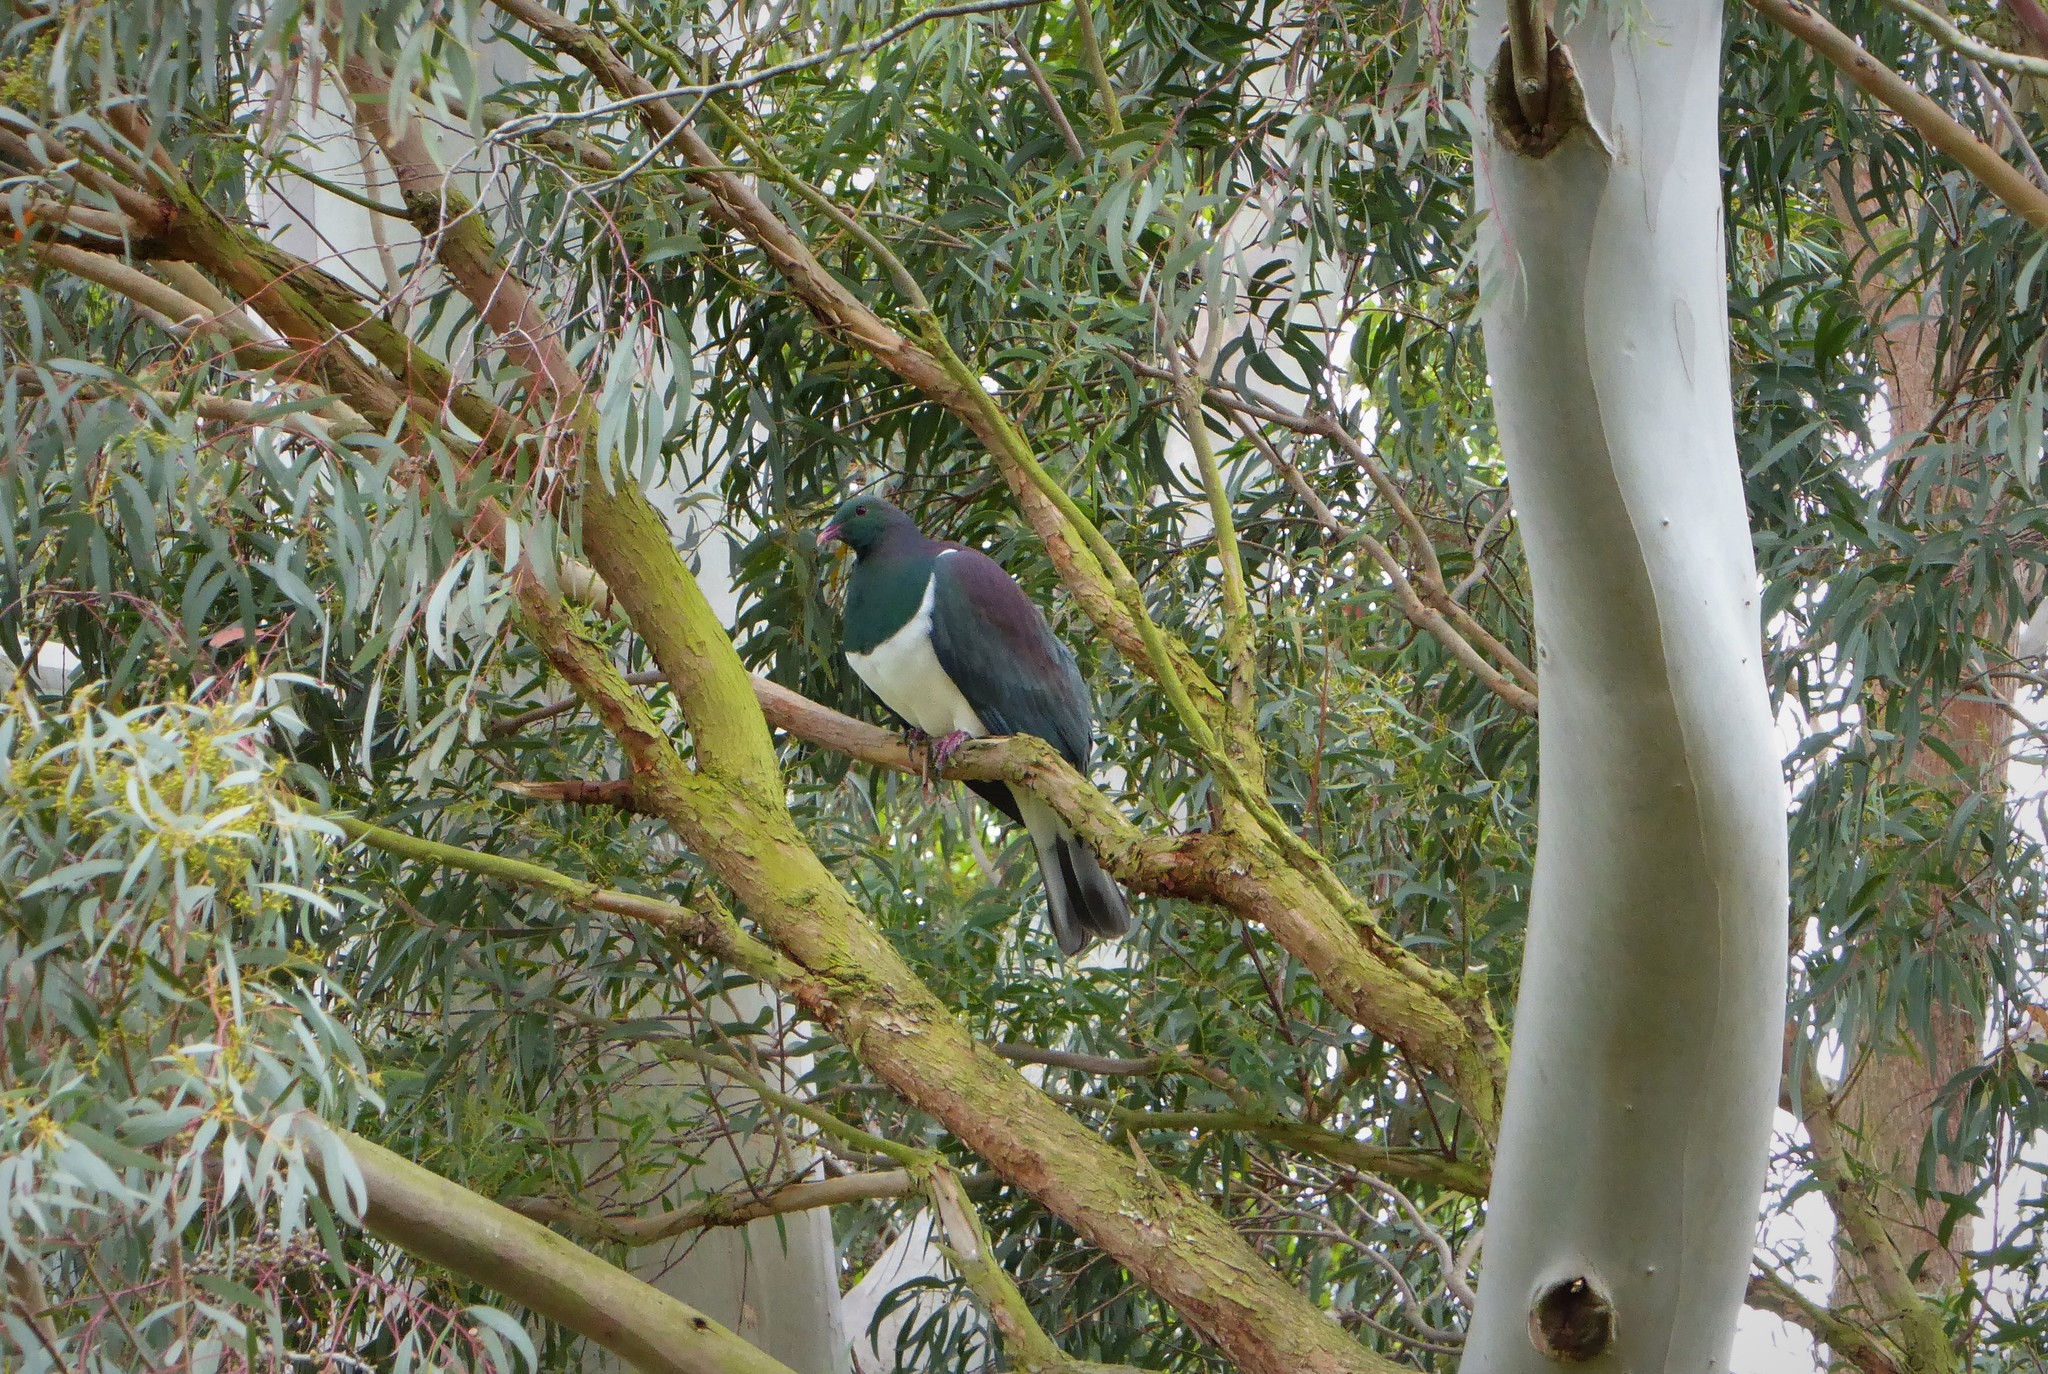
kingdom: Animalia
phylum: Chordata
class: Aves
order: Columbiformes
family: Columbidae
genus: Hemiphaga
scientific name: Hemiphaga novaeseelandiae
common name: New zealand pigeon
